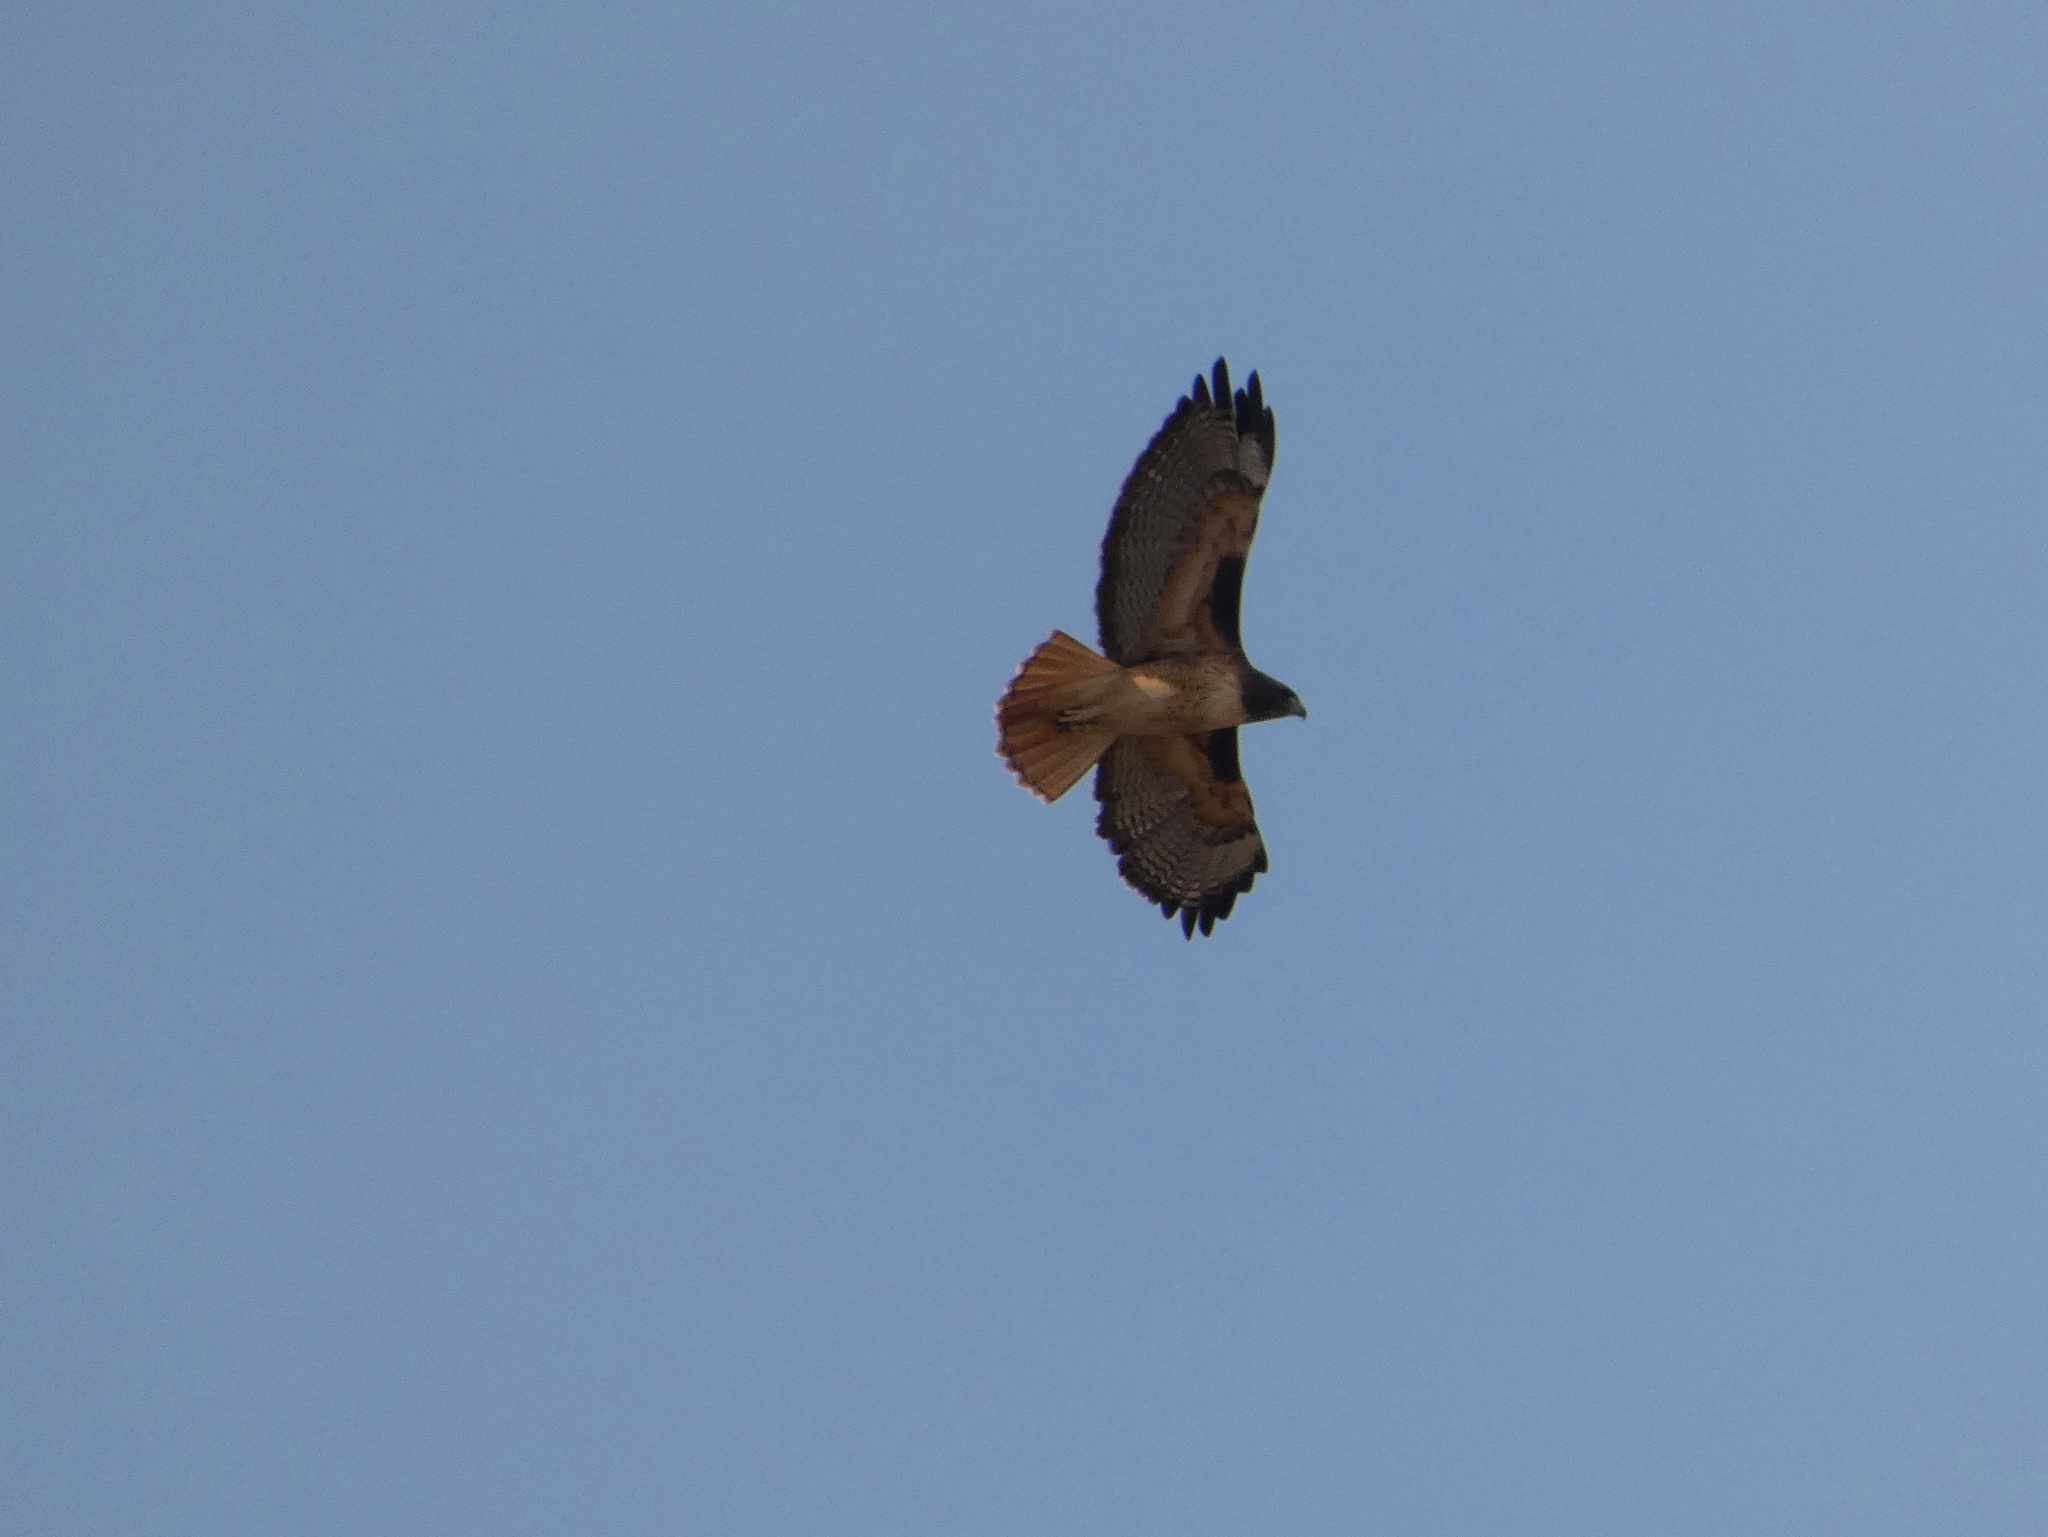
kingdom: Animalia
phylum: Chordata
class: Aves
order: Accipitriformes
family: Accipitridae
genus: Buteo
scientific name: Buteo jamaicensis
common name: Red-tailed hawk
